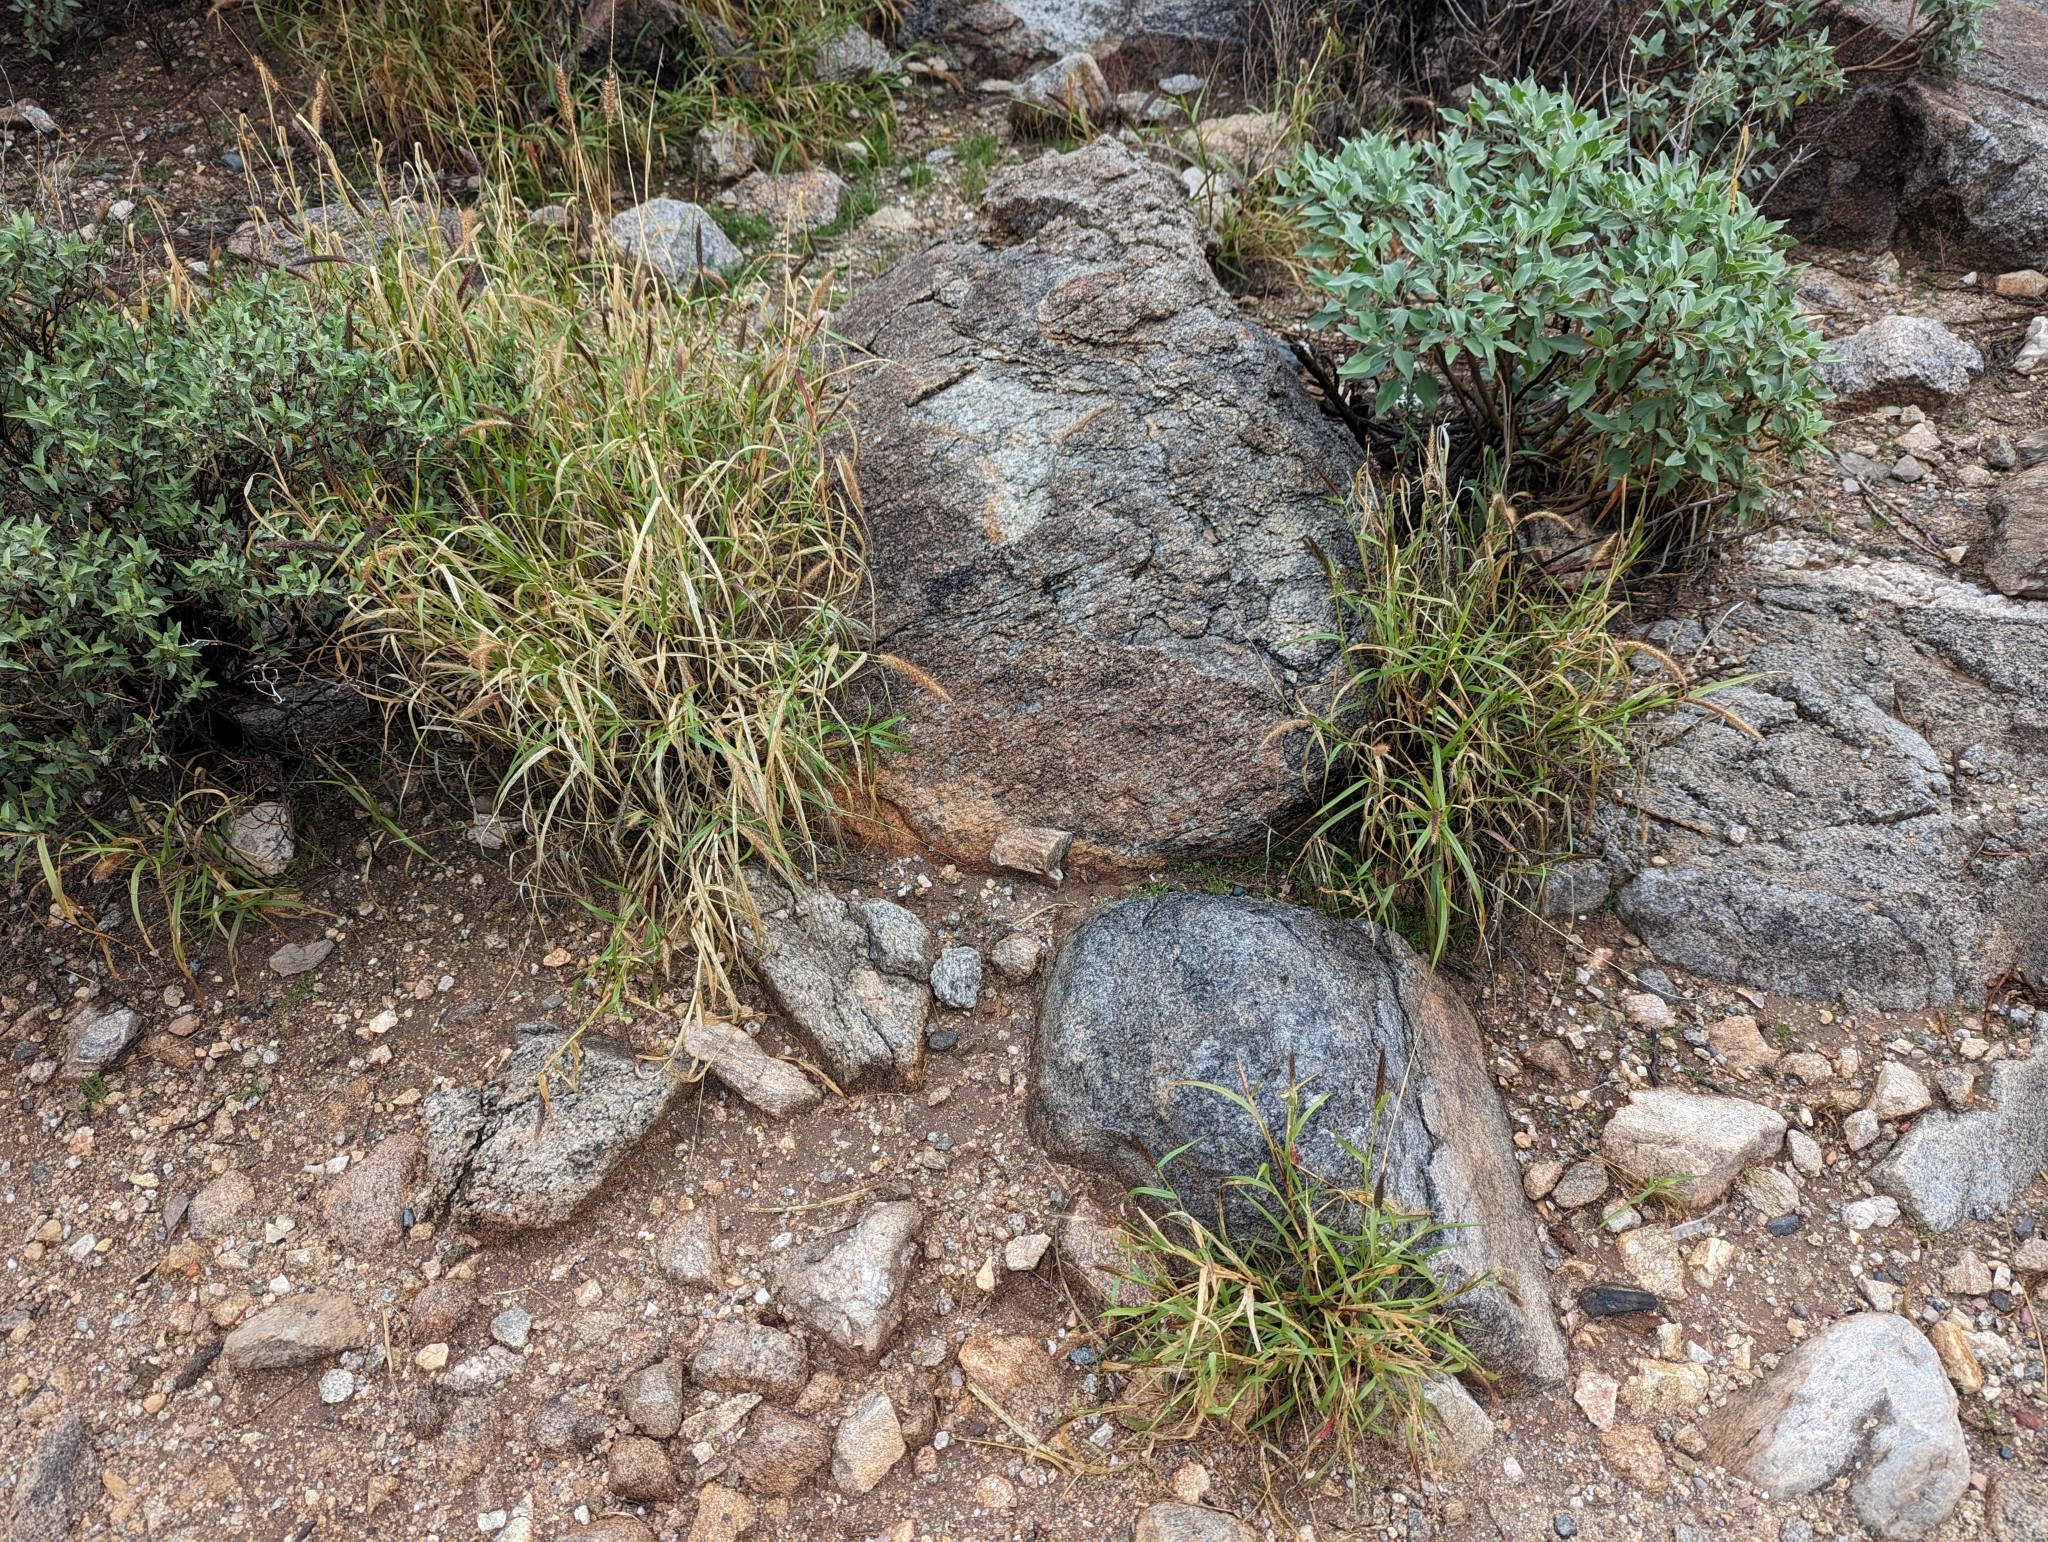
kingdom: Plantae
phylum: Tracheophyta
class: Liliopsida
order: Poales
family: Poaceae
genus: Cenchrus
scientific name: Cenchrus ciliaris
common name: Buffelgrass
